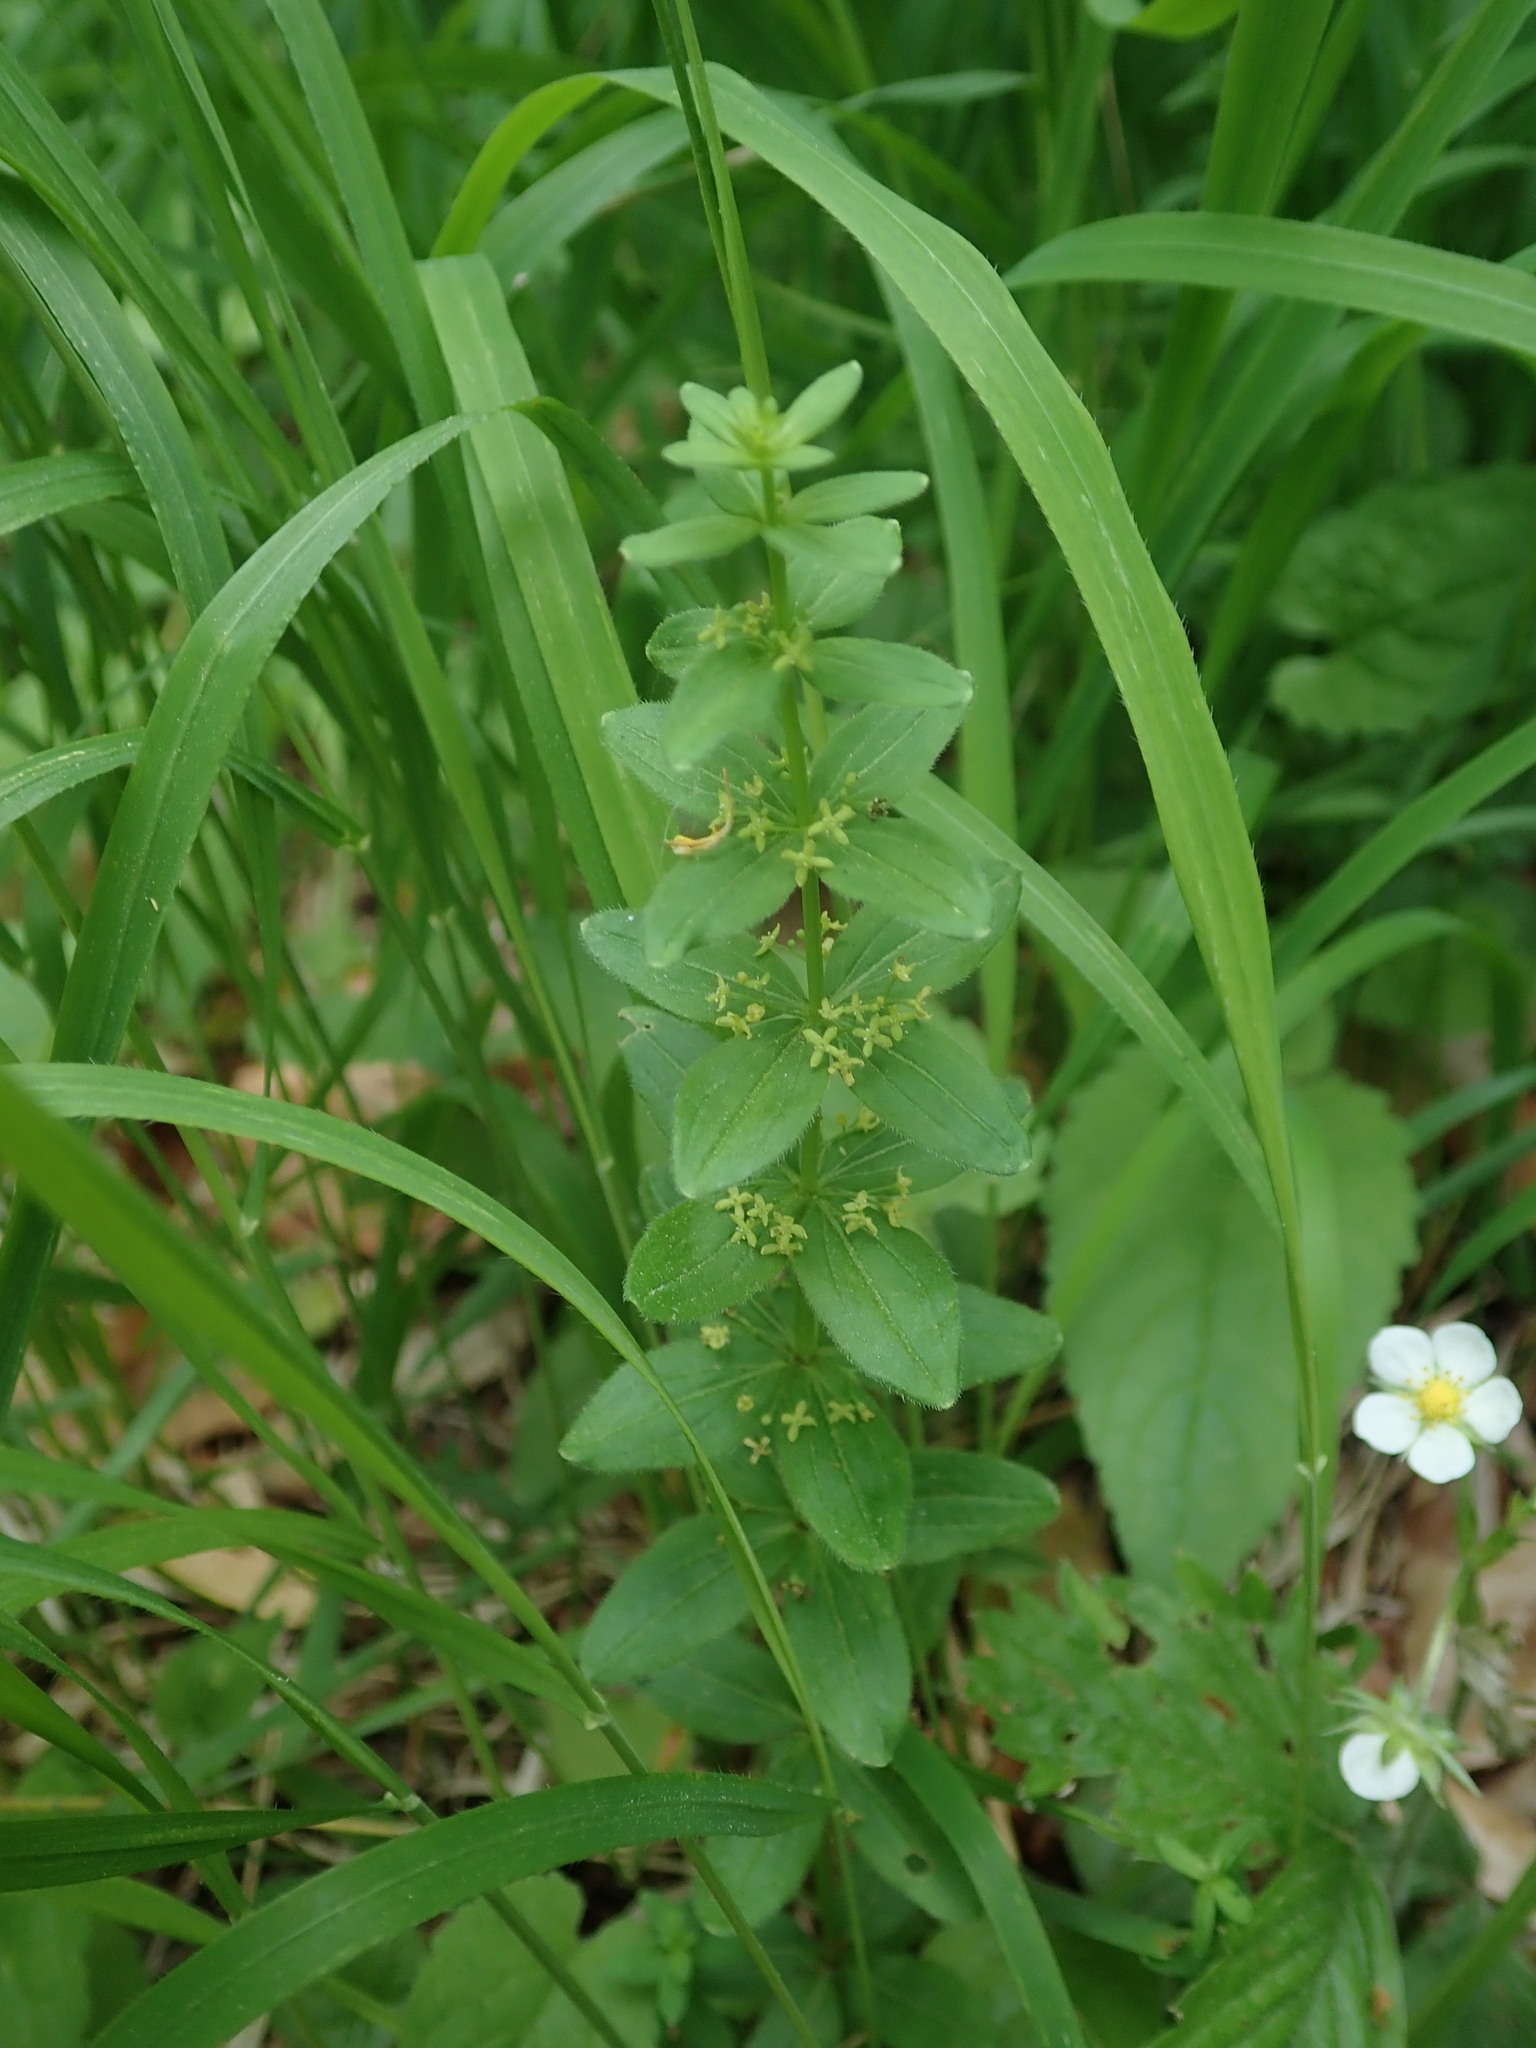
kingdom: Plantae
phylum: Tracheophyta
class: Magnoliopsida
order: Gentianales
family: Rubiaceae
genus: Cruciata
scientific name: Cruciata glabra
